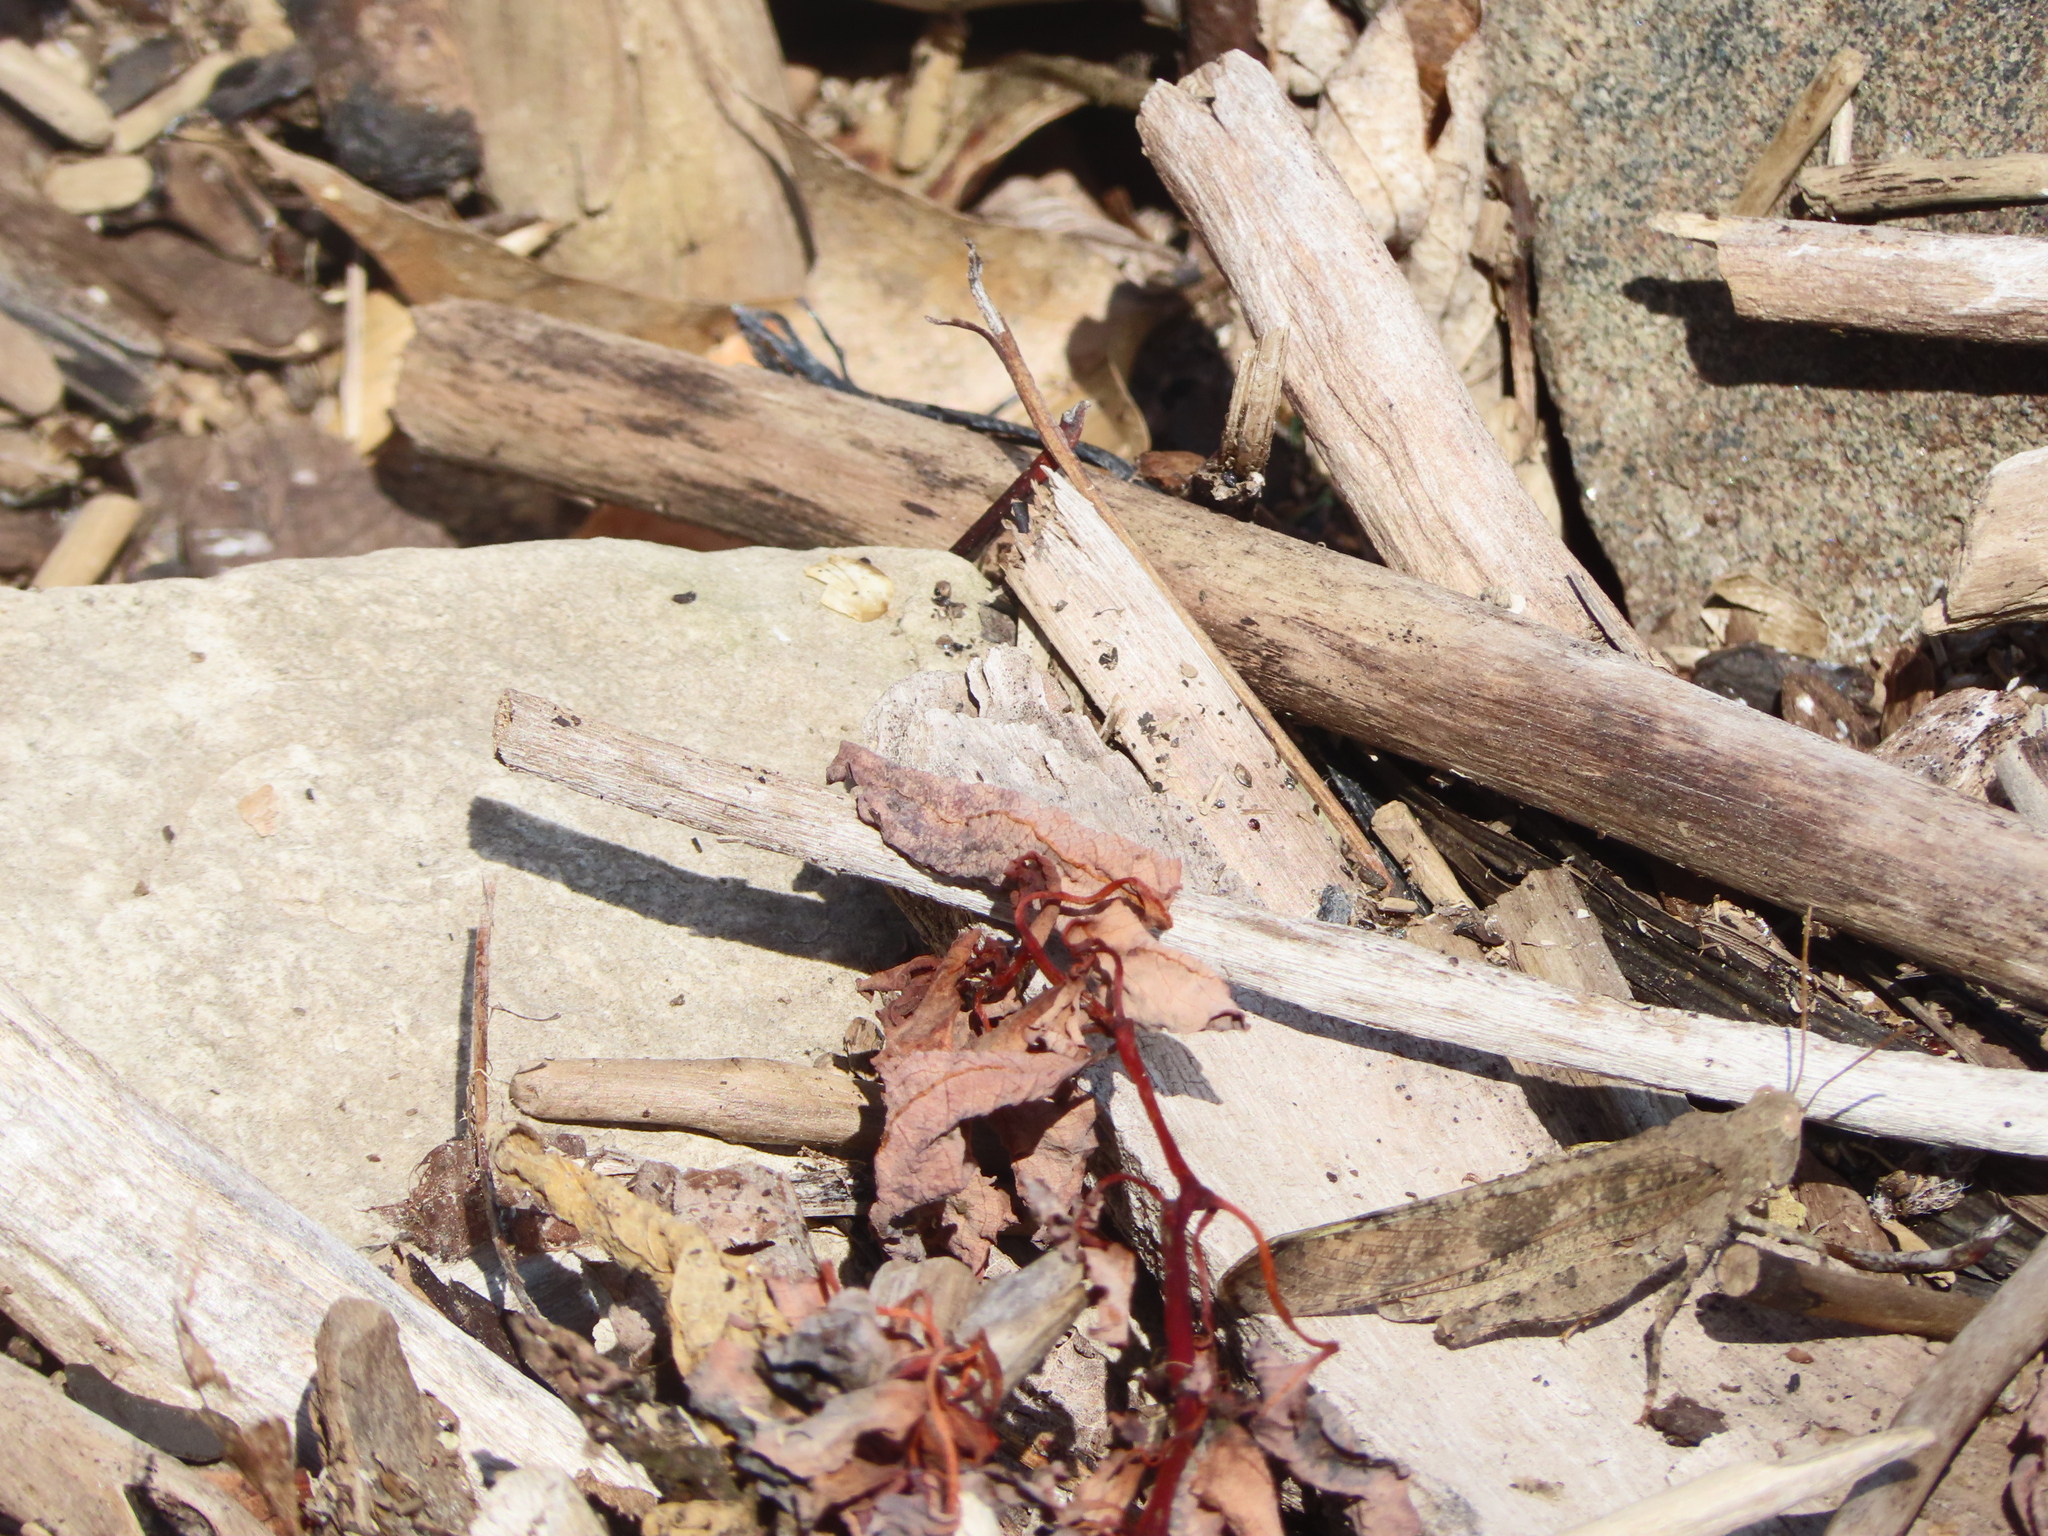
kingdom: Animalia
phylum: Arthropoda
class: Insecta
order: Orthoptera
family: Acrididae
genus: Dissosteira
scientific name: Dissosteira carolina
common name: Carolina grasshopper
